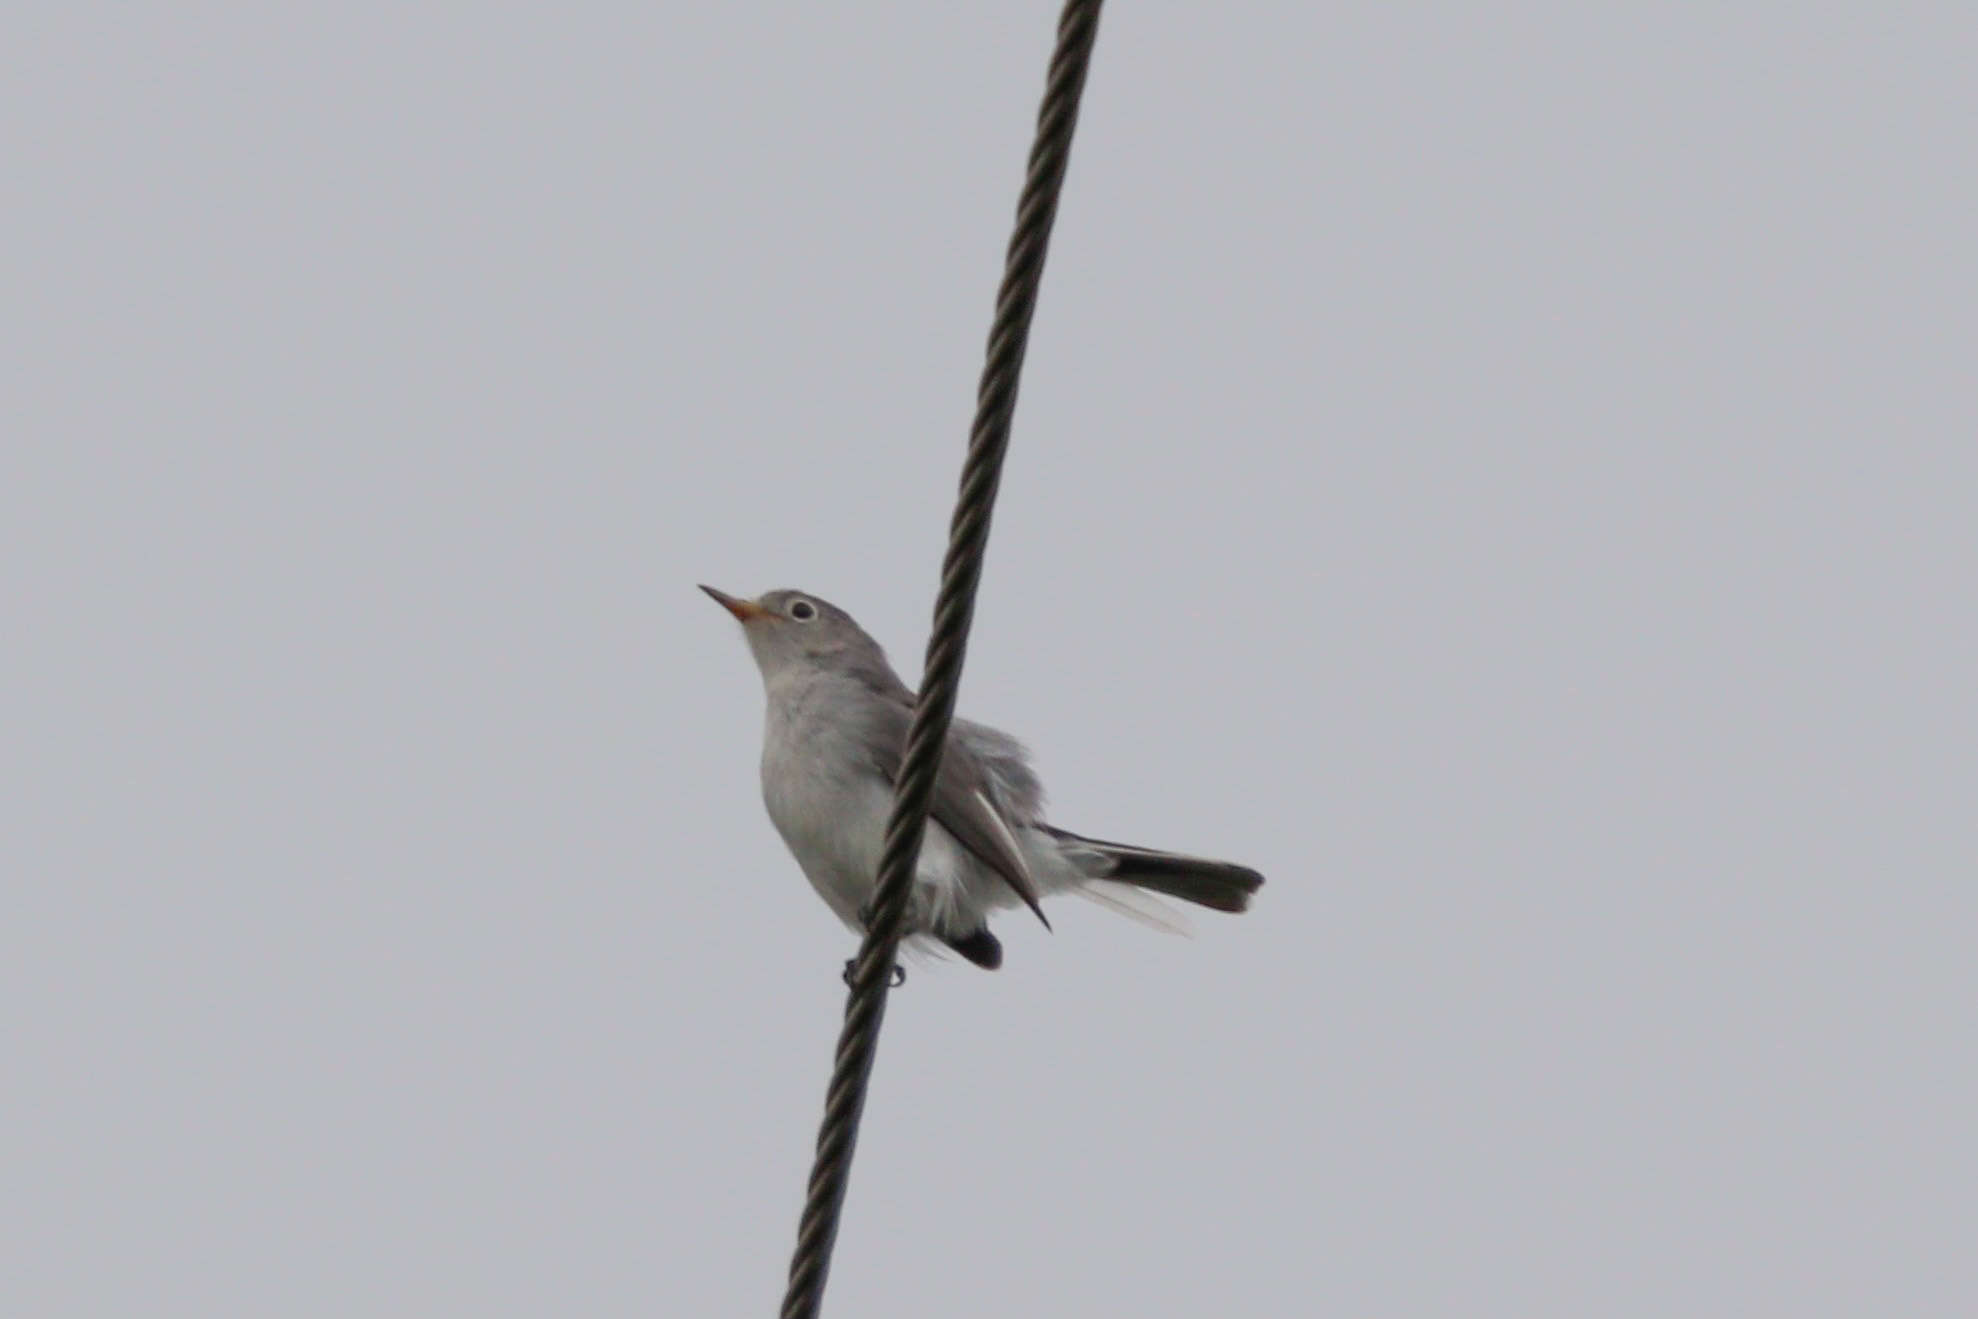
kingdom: Animalia
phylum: Chordata
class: Aves
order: Passeriformes
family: Polioptilidae
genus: Polioptila
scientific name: Polioptila caerulea
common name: Blue-gray gnatcatcher
